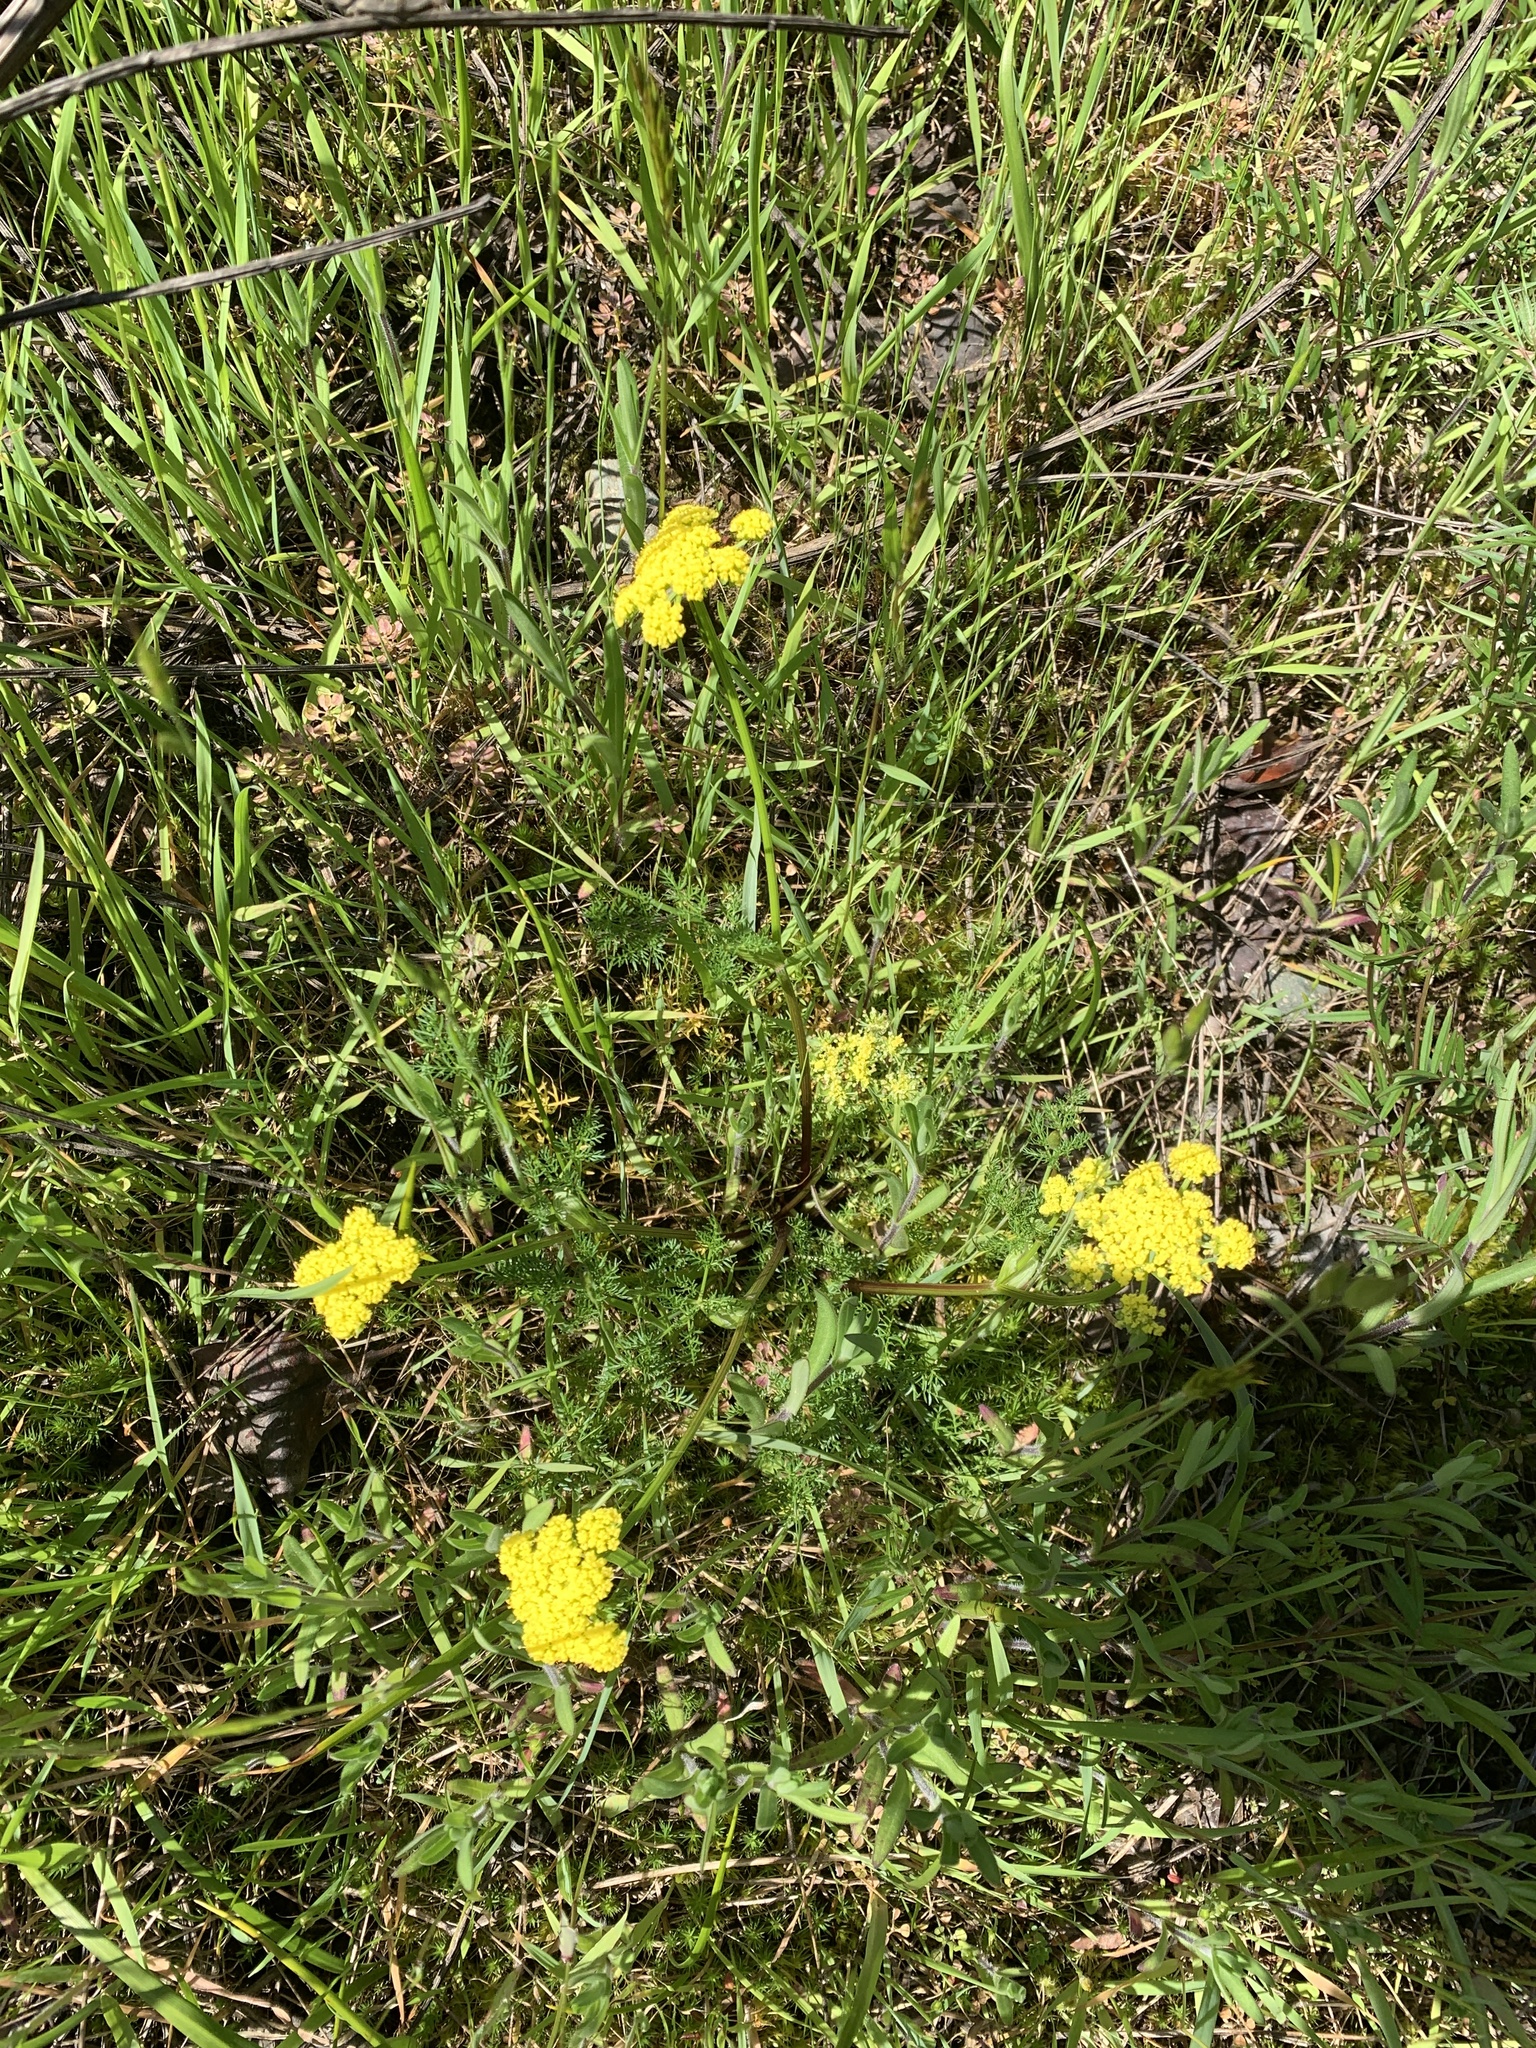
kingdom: Plantae
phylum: Tracheophyta
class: Magnoliopsida
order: Apiales
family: Apiaceae
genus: Lomatium
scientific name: Lomatium utriculatum
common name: Fine-leaf desert-parsley
